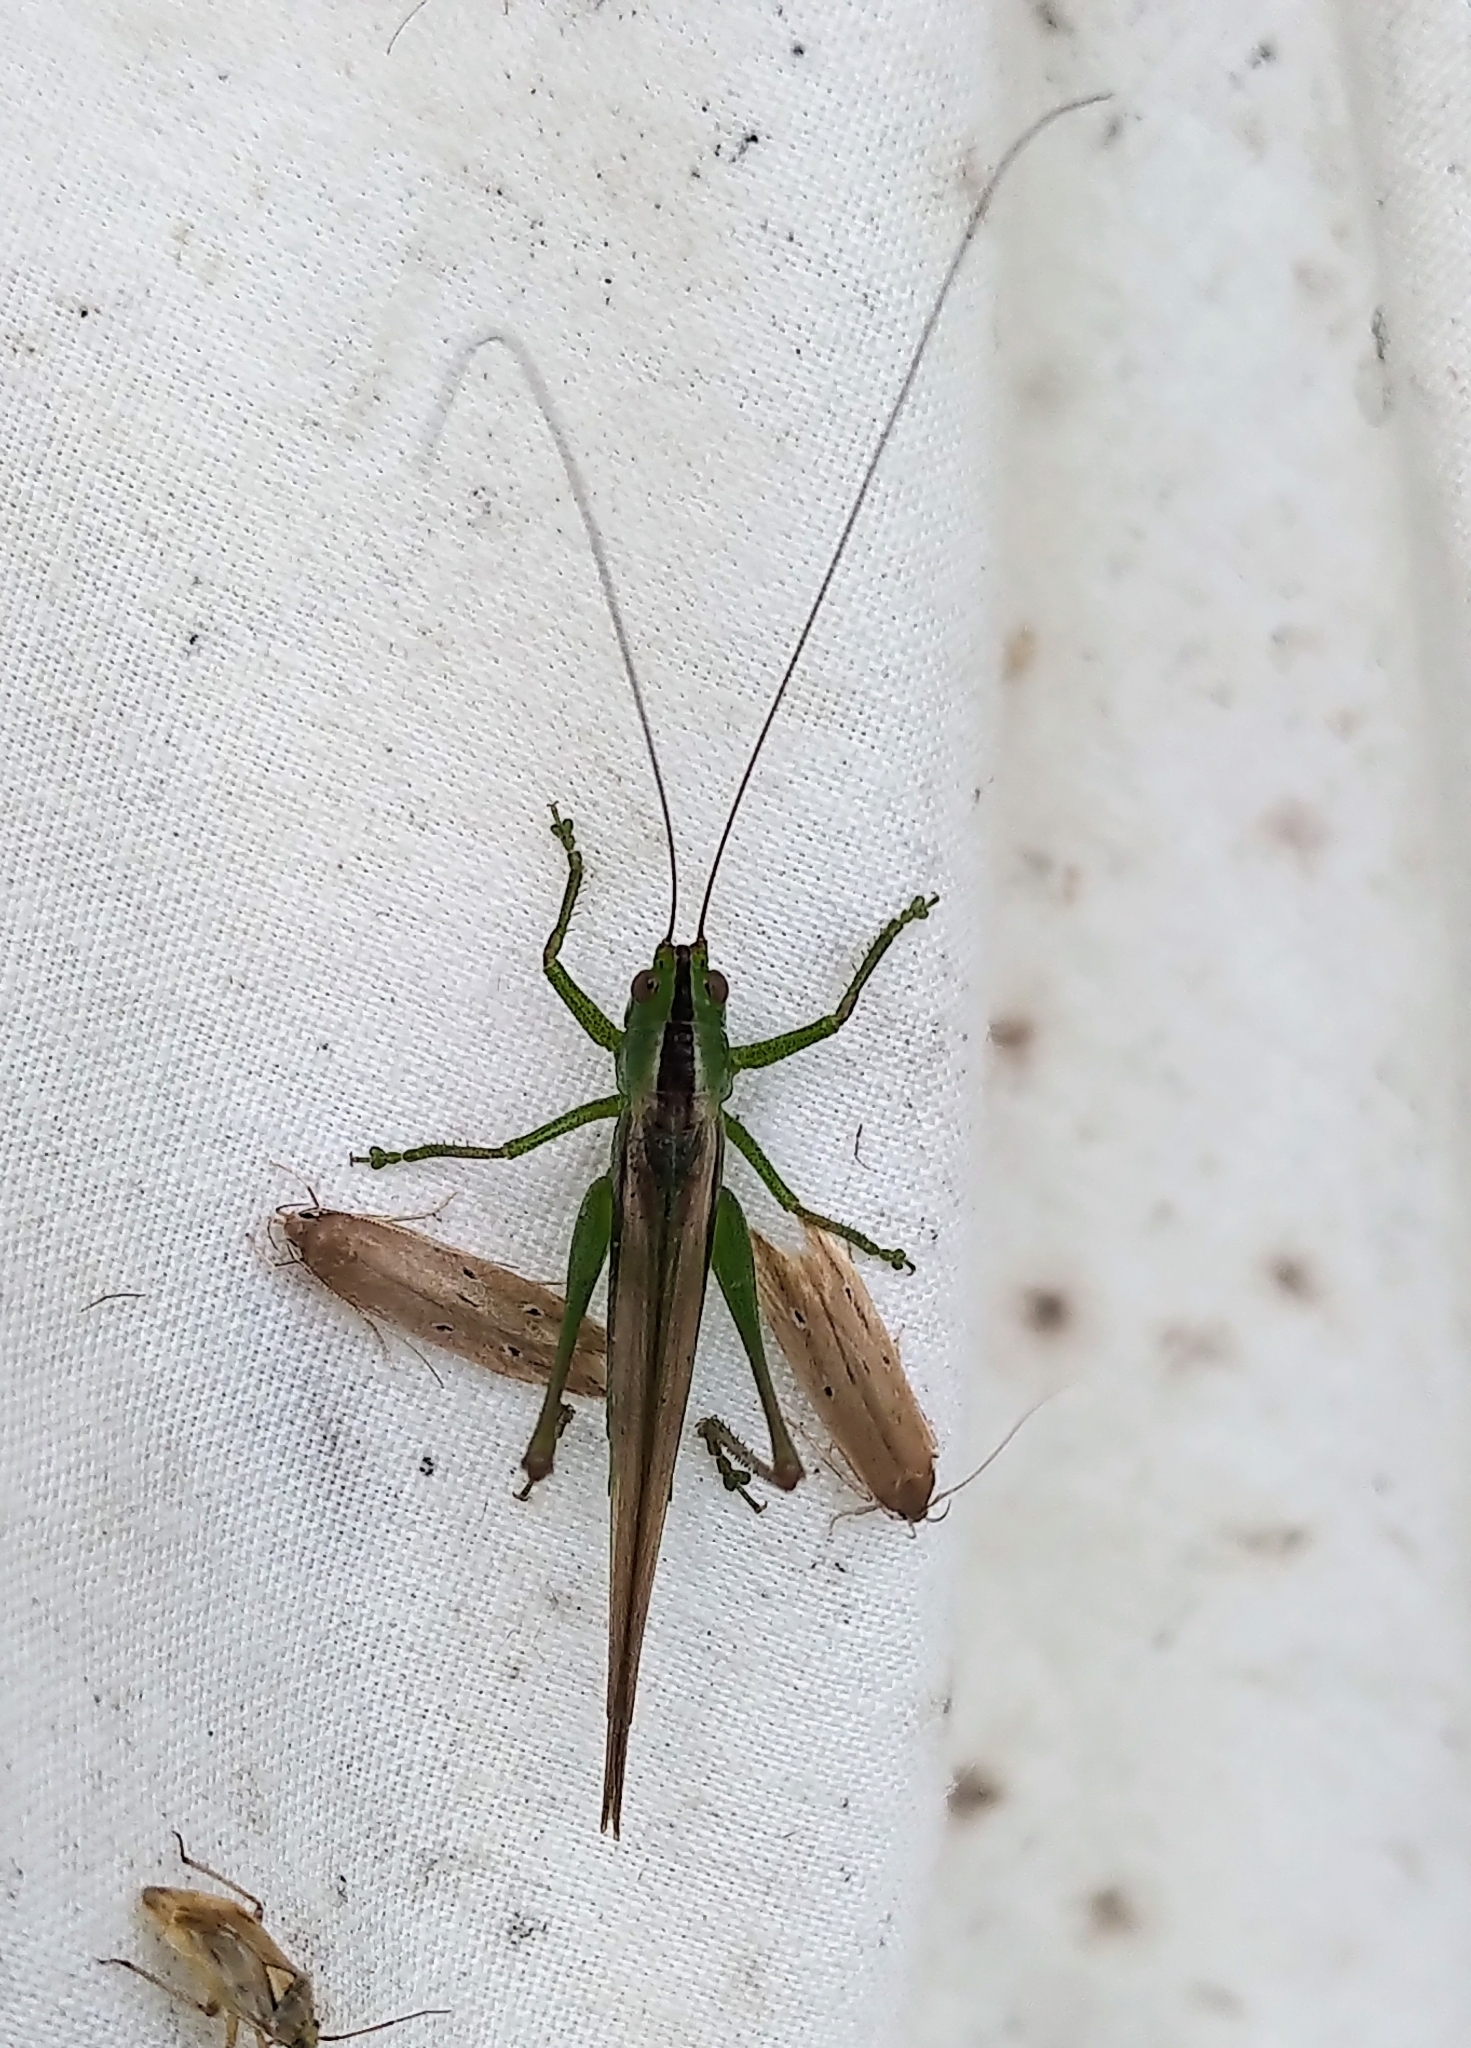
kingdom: Animalia
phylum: Arthropoda
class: Insecta
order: Orthoptera
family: Tettigoniidae
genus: Conocephalus
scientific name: Conocephalus fasciatus
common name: Slender meadow katydid
